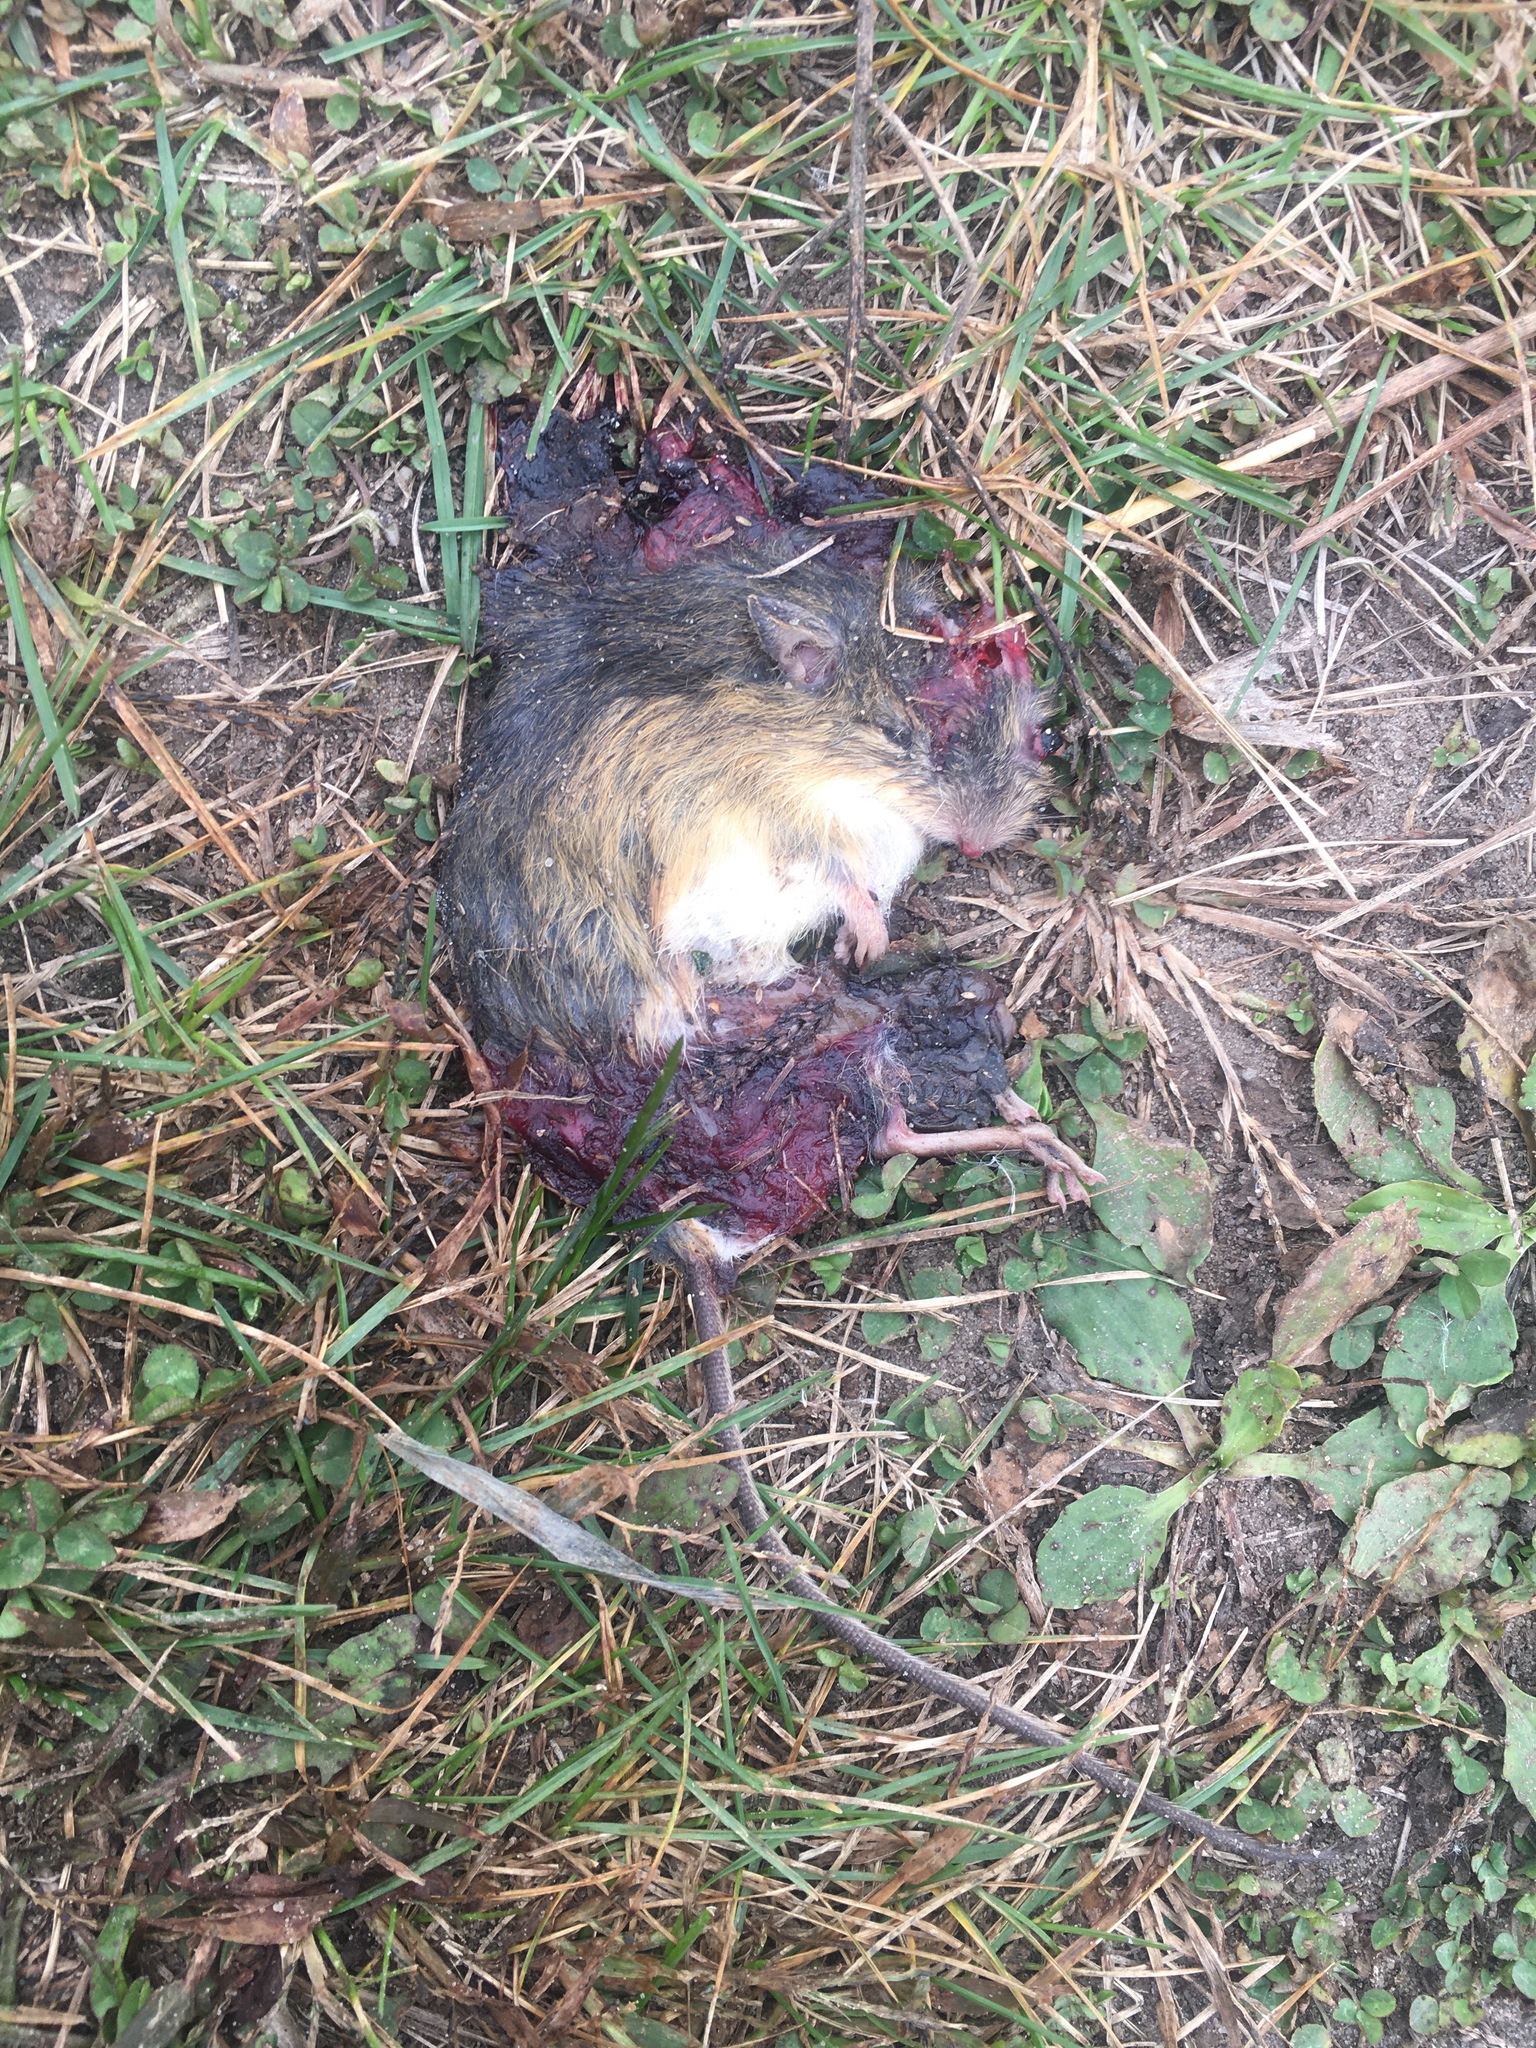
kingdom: Animalia
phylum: Chordata
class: Mammalia
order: Rodentia
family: Dipodidae
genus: Zapus
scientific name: Zapus hudsonius
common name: Meadow jumping mouse
